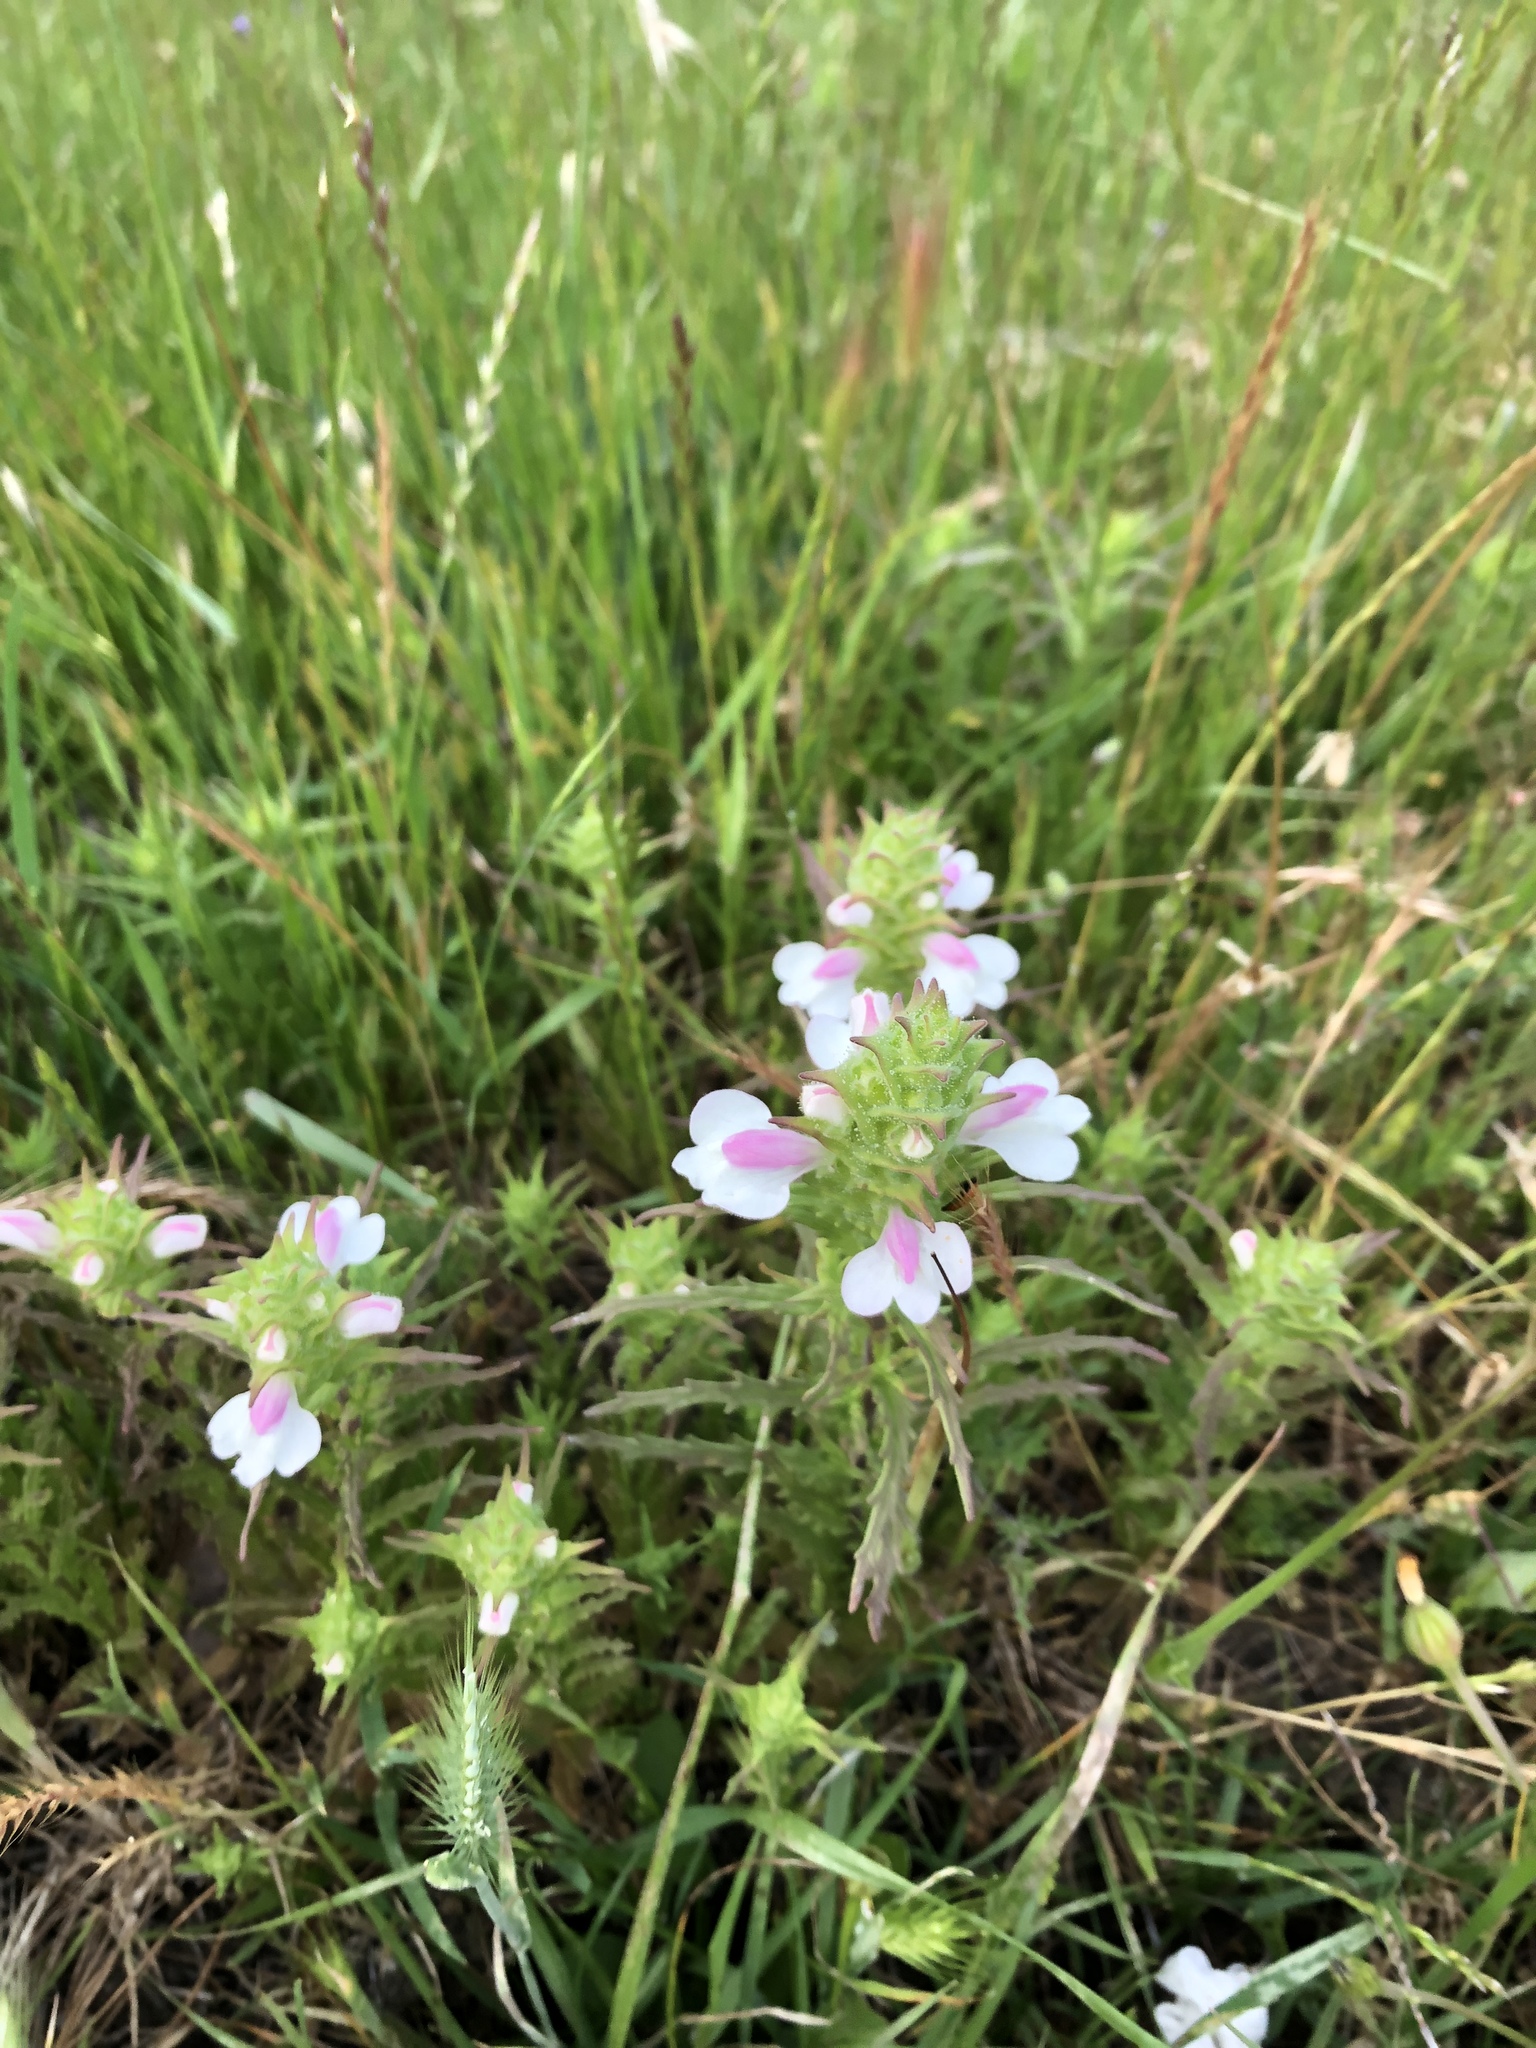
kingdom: Plantae
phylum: Tracheophyta
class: Magnoliopsida
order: Lamiales
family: Orobanchaceae
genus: Bellardia
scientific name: Bellardia trixago
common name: Mediterranean lineseed
